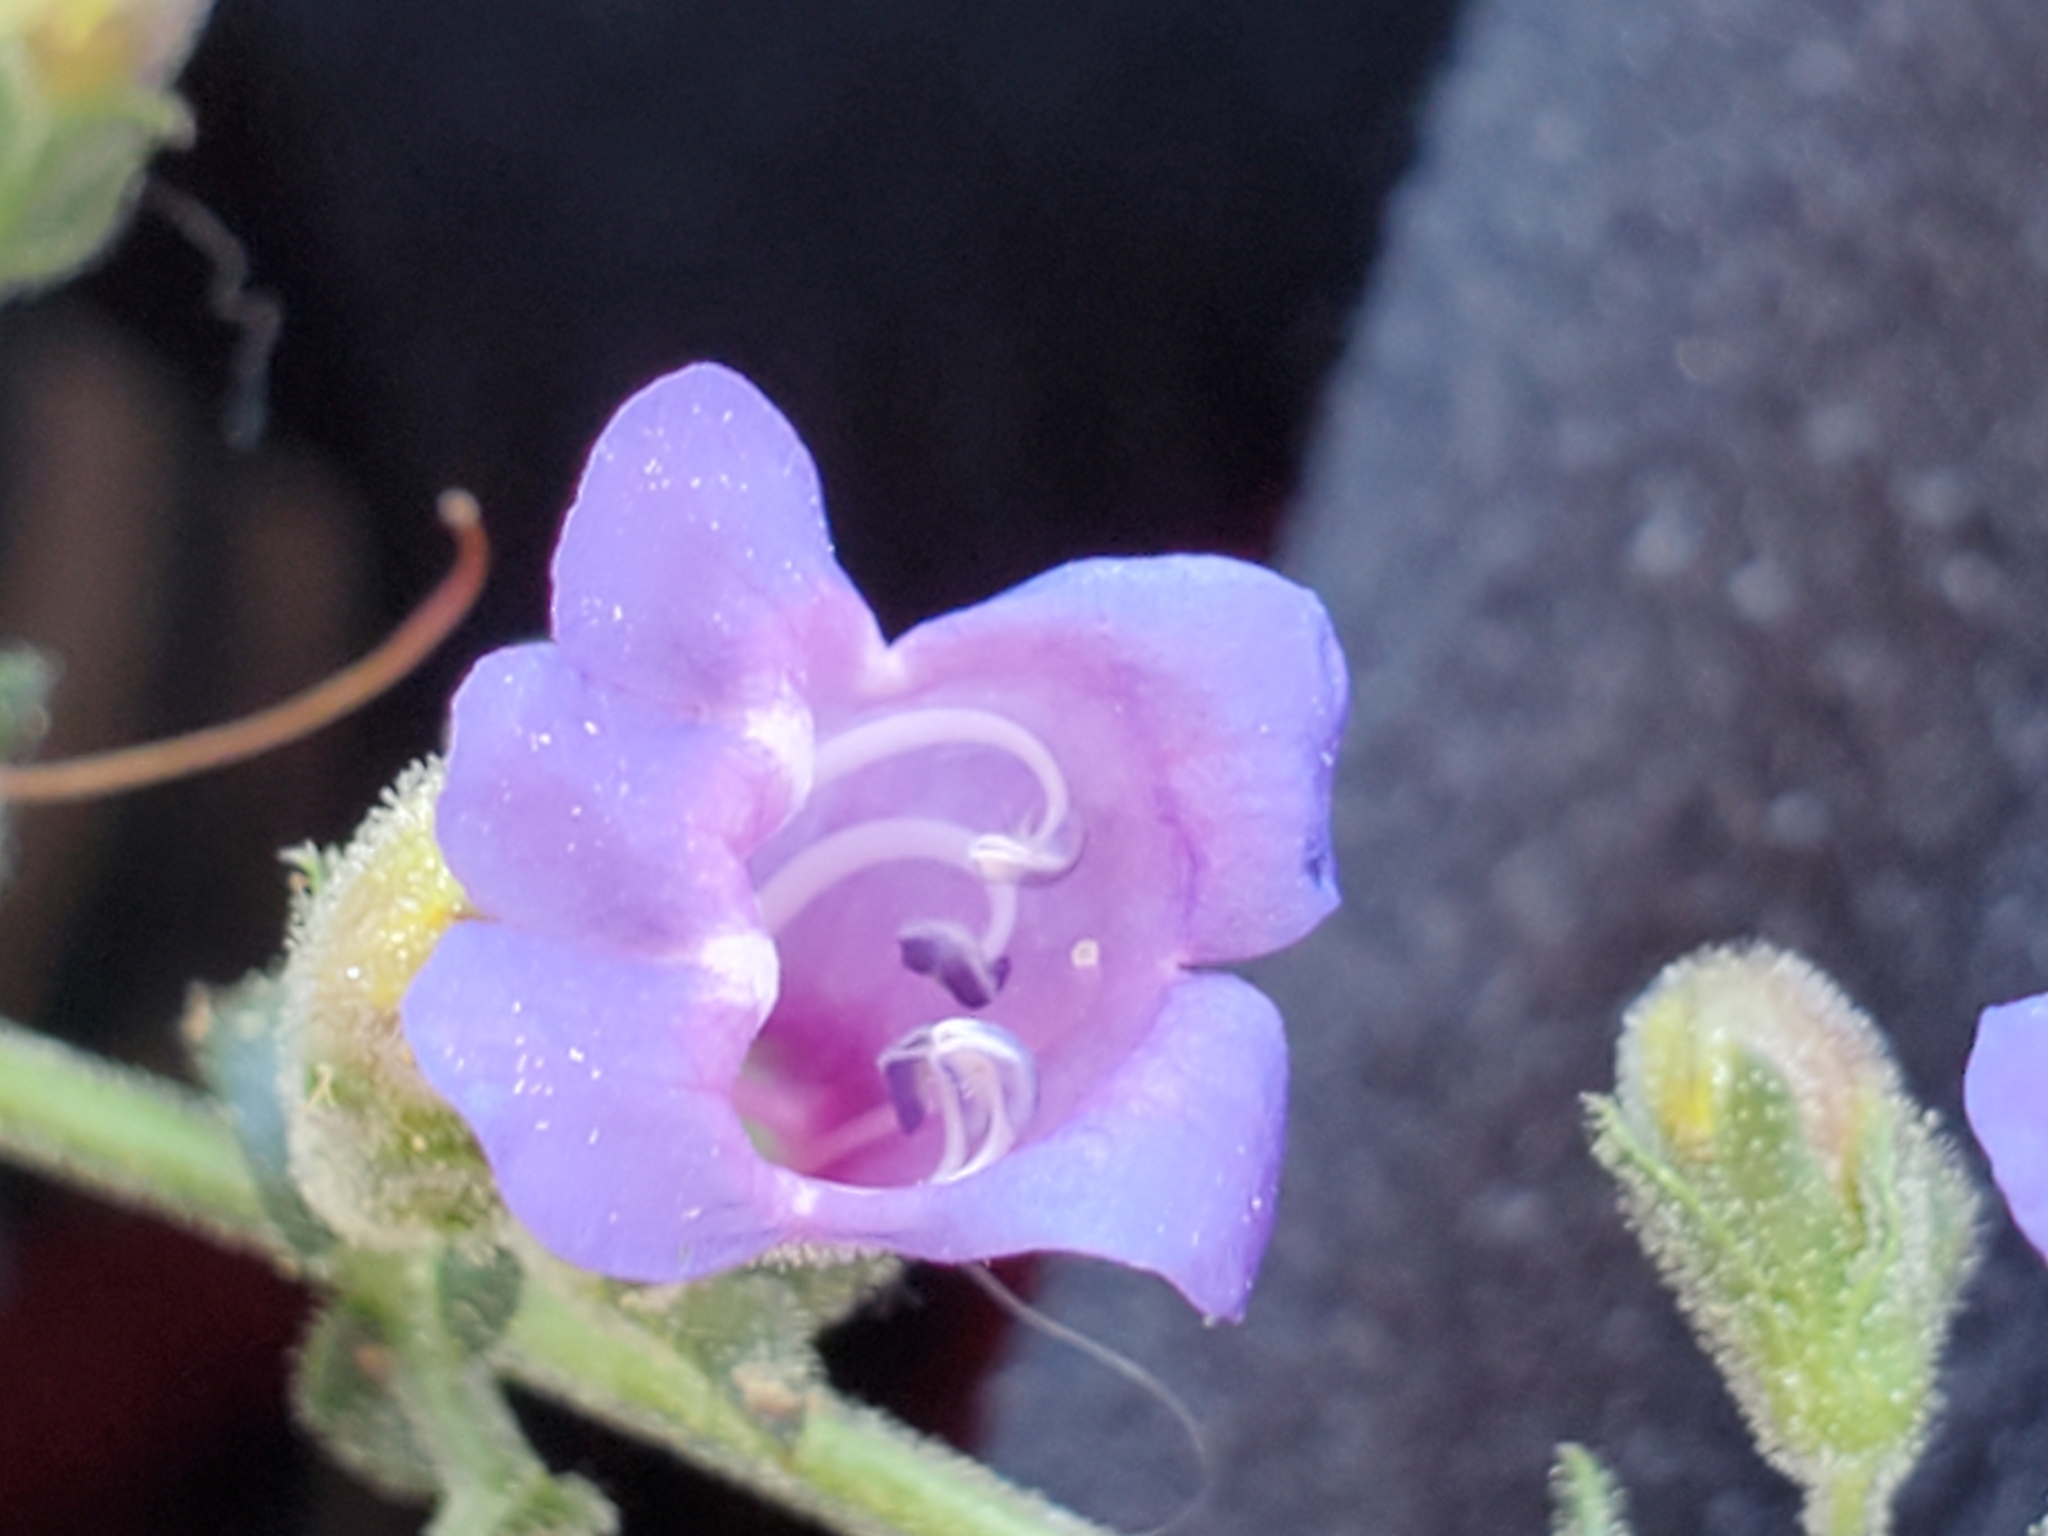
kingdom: Plantae
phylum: Tracheophyta
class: Magnoliopsida
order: Lamiales
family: Plantaginaceae
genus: Penstemon
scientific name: Penstemon laetus
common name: Gay penstemon
